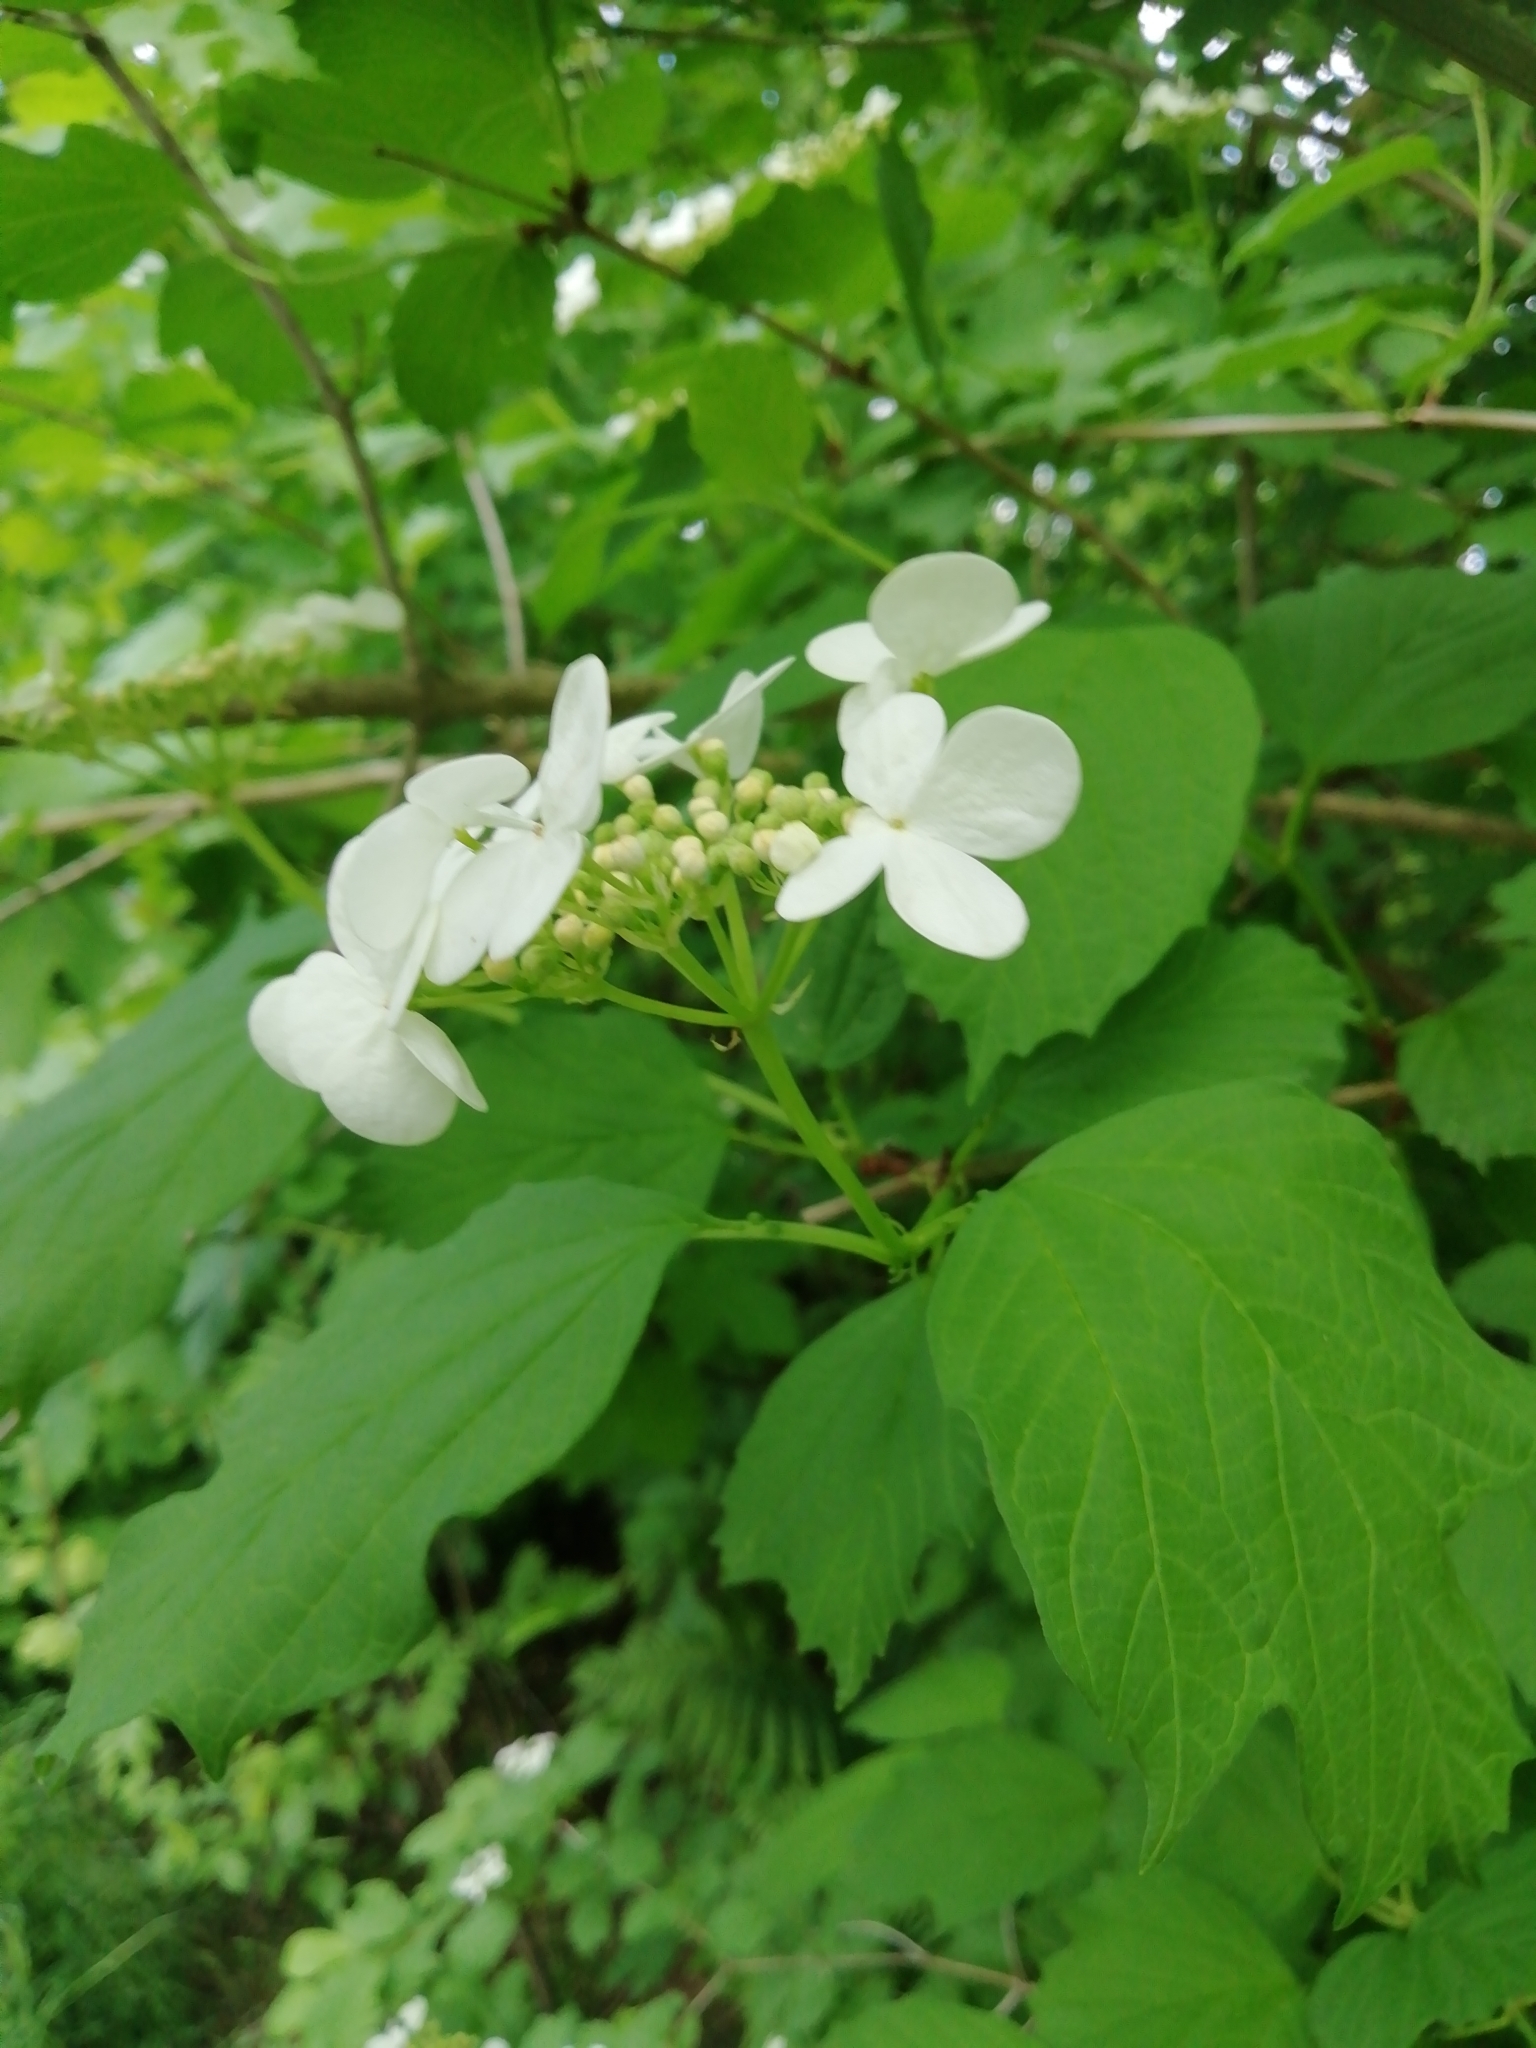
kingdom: Plantae
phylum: Tracheophyta
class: Magnoliopsida
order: Dipsacales
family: Viburnaceae
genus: Viburnum
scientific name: Viburnum opulus
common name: Guelder-rose
